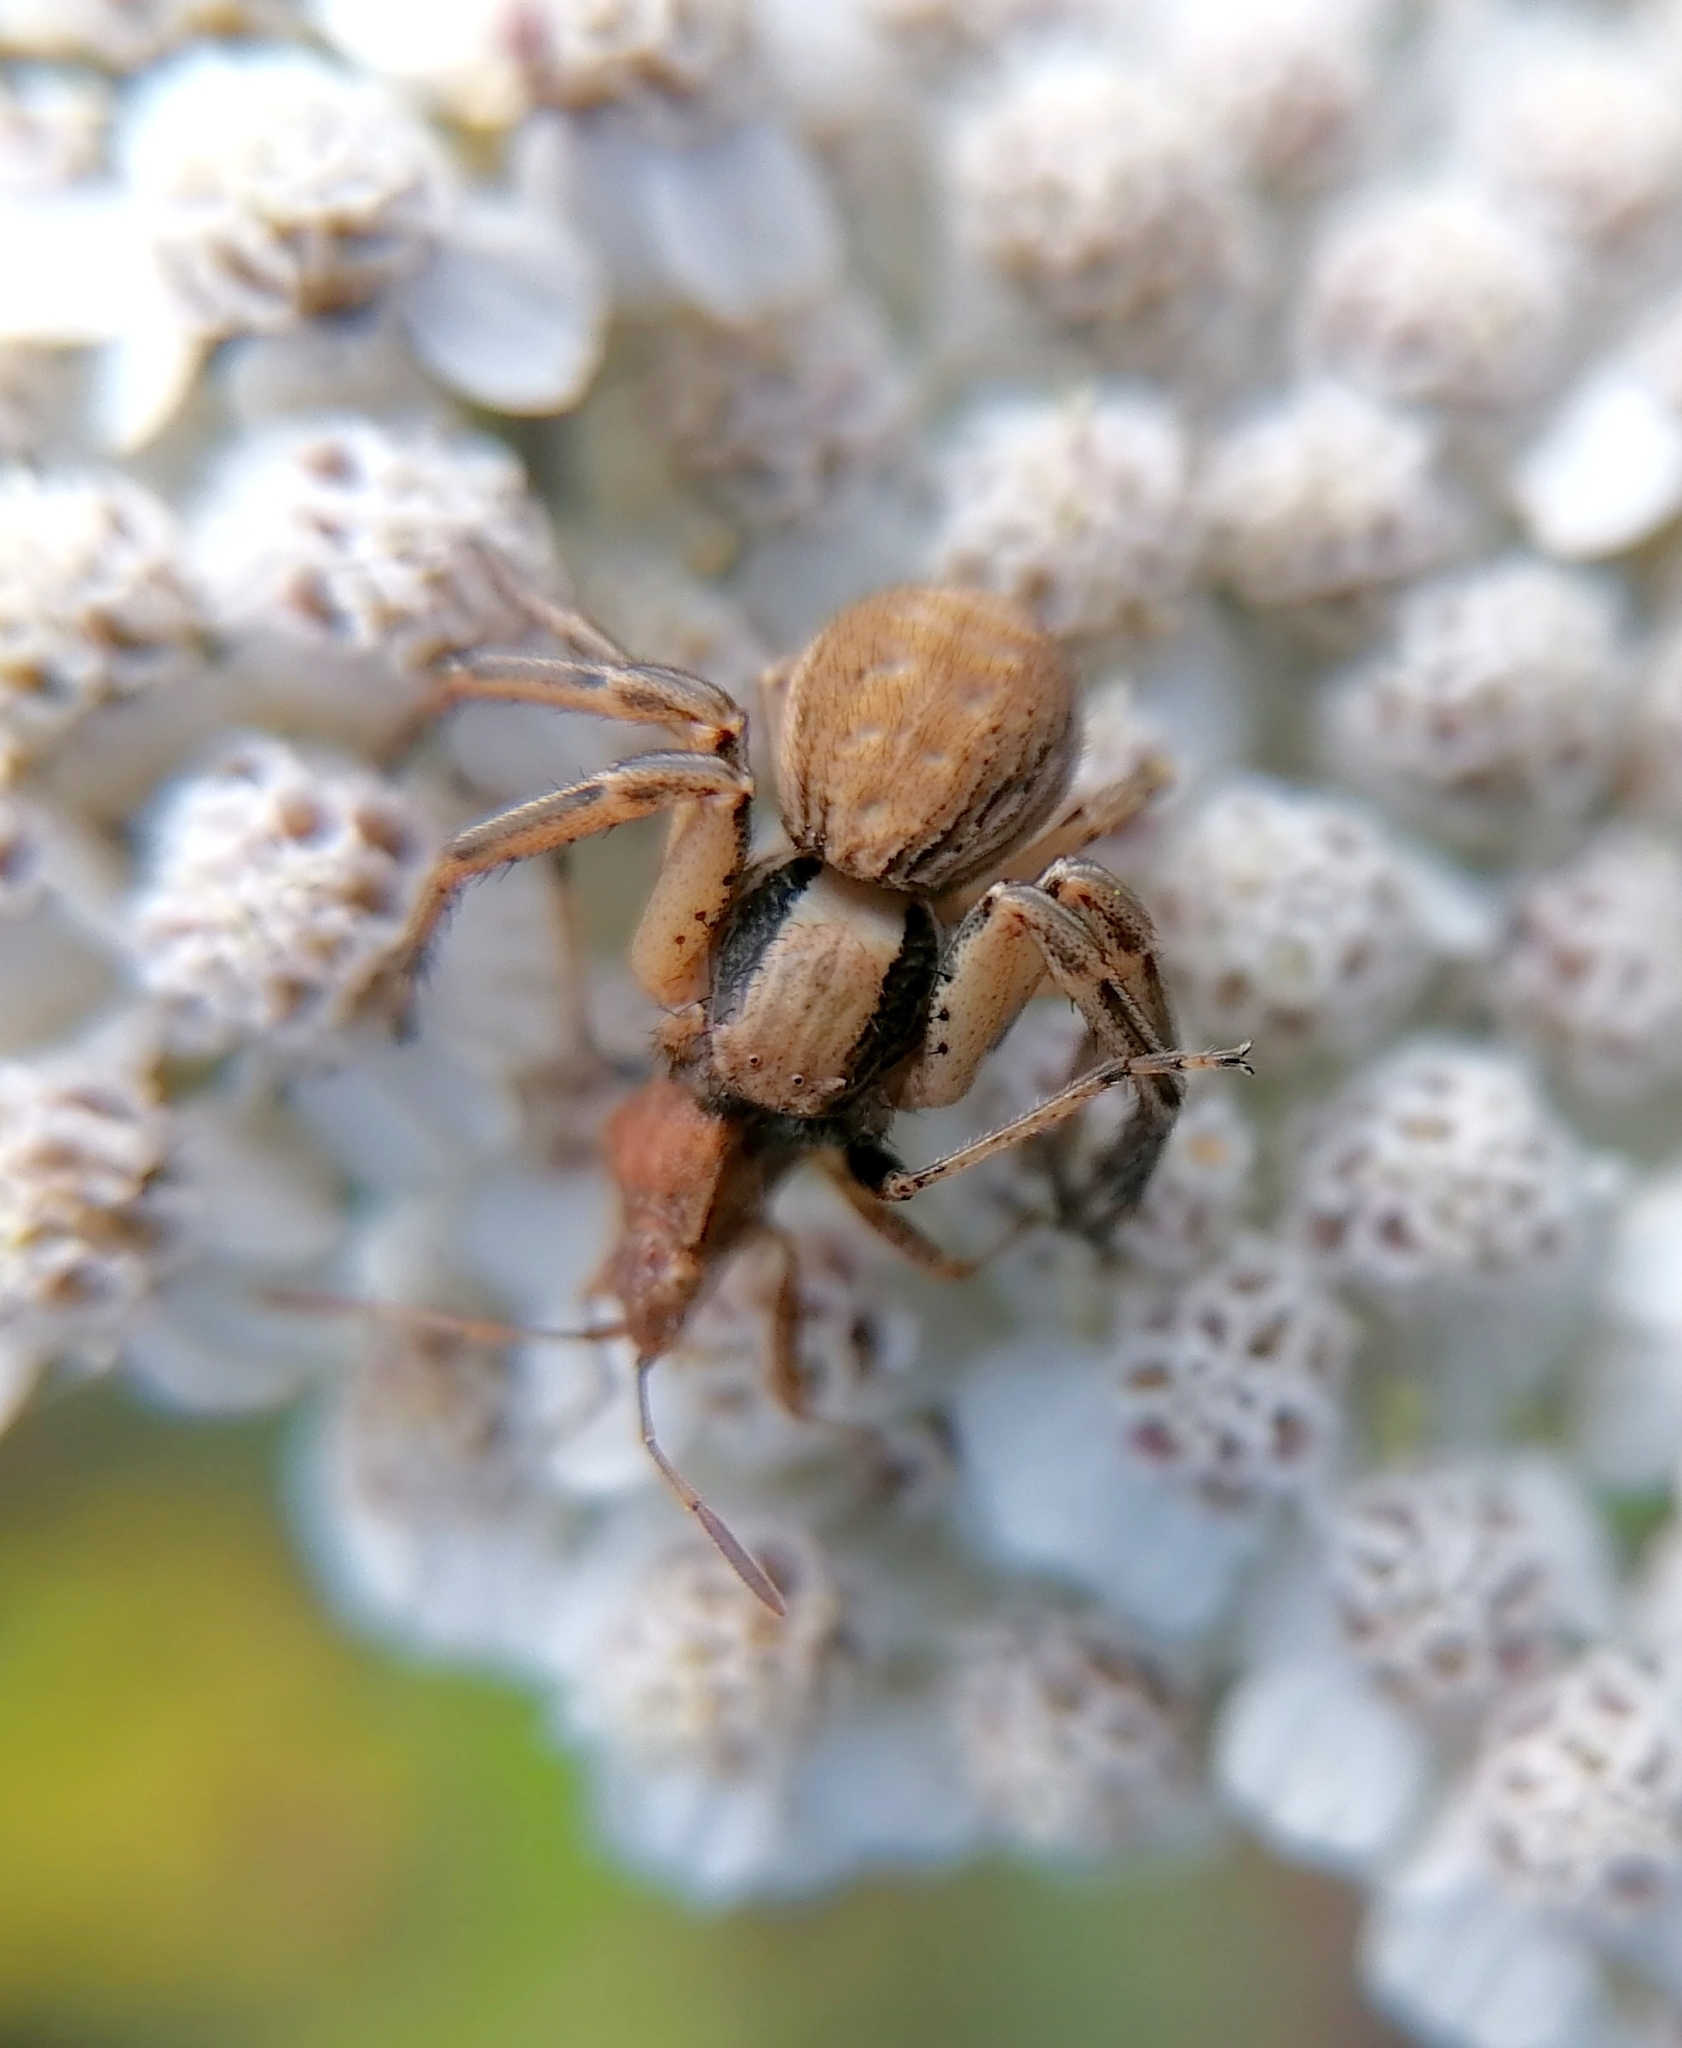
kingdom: Animalia
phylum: Arthropoda
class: Arachnida
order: Araneae
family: Thomisidae
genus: Spiracme
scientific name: Spiracme striatipes
